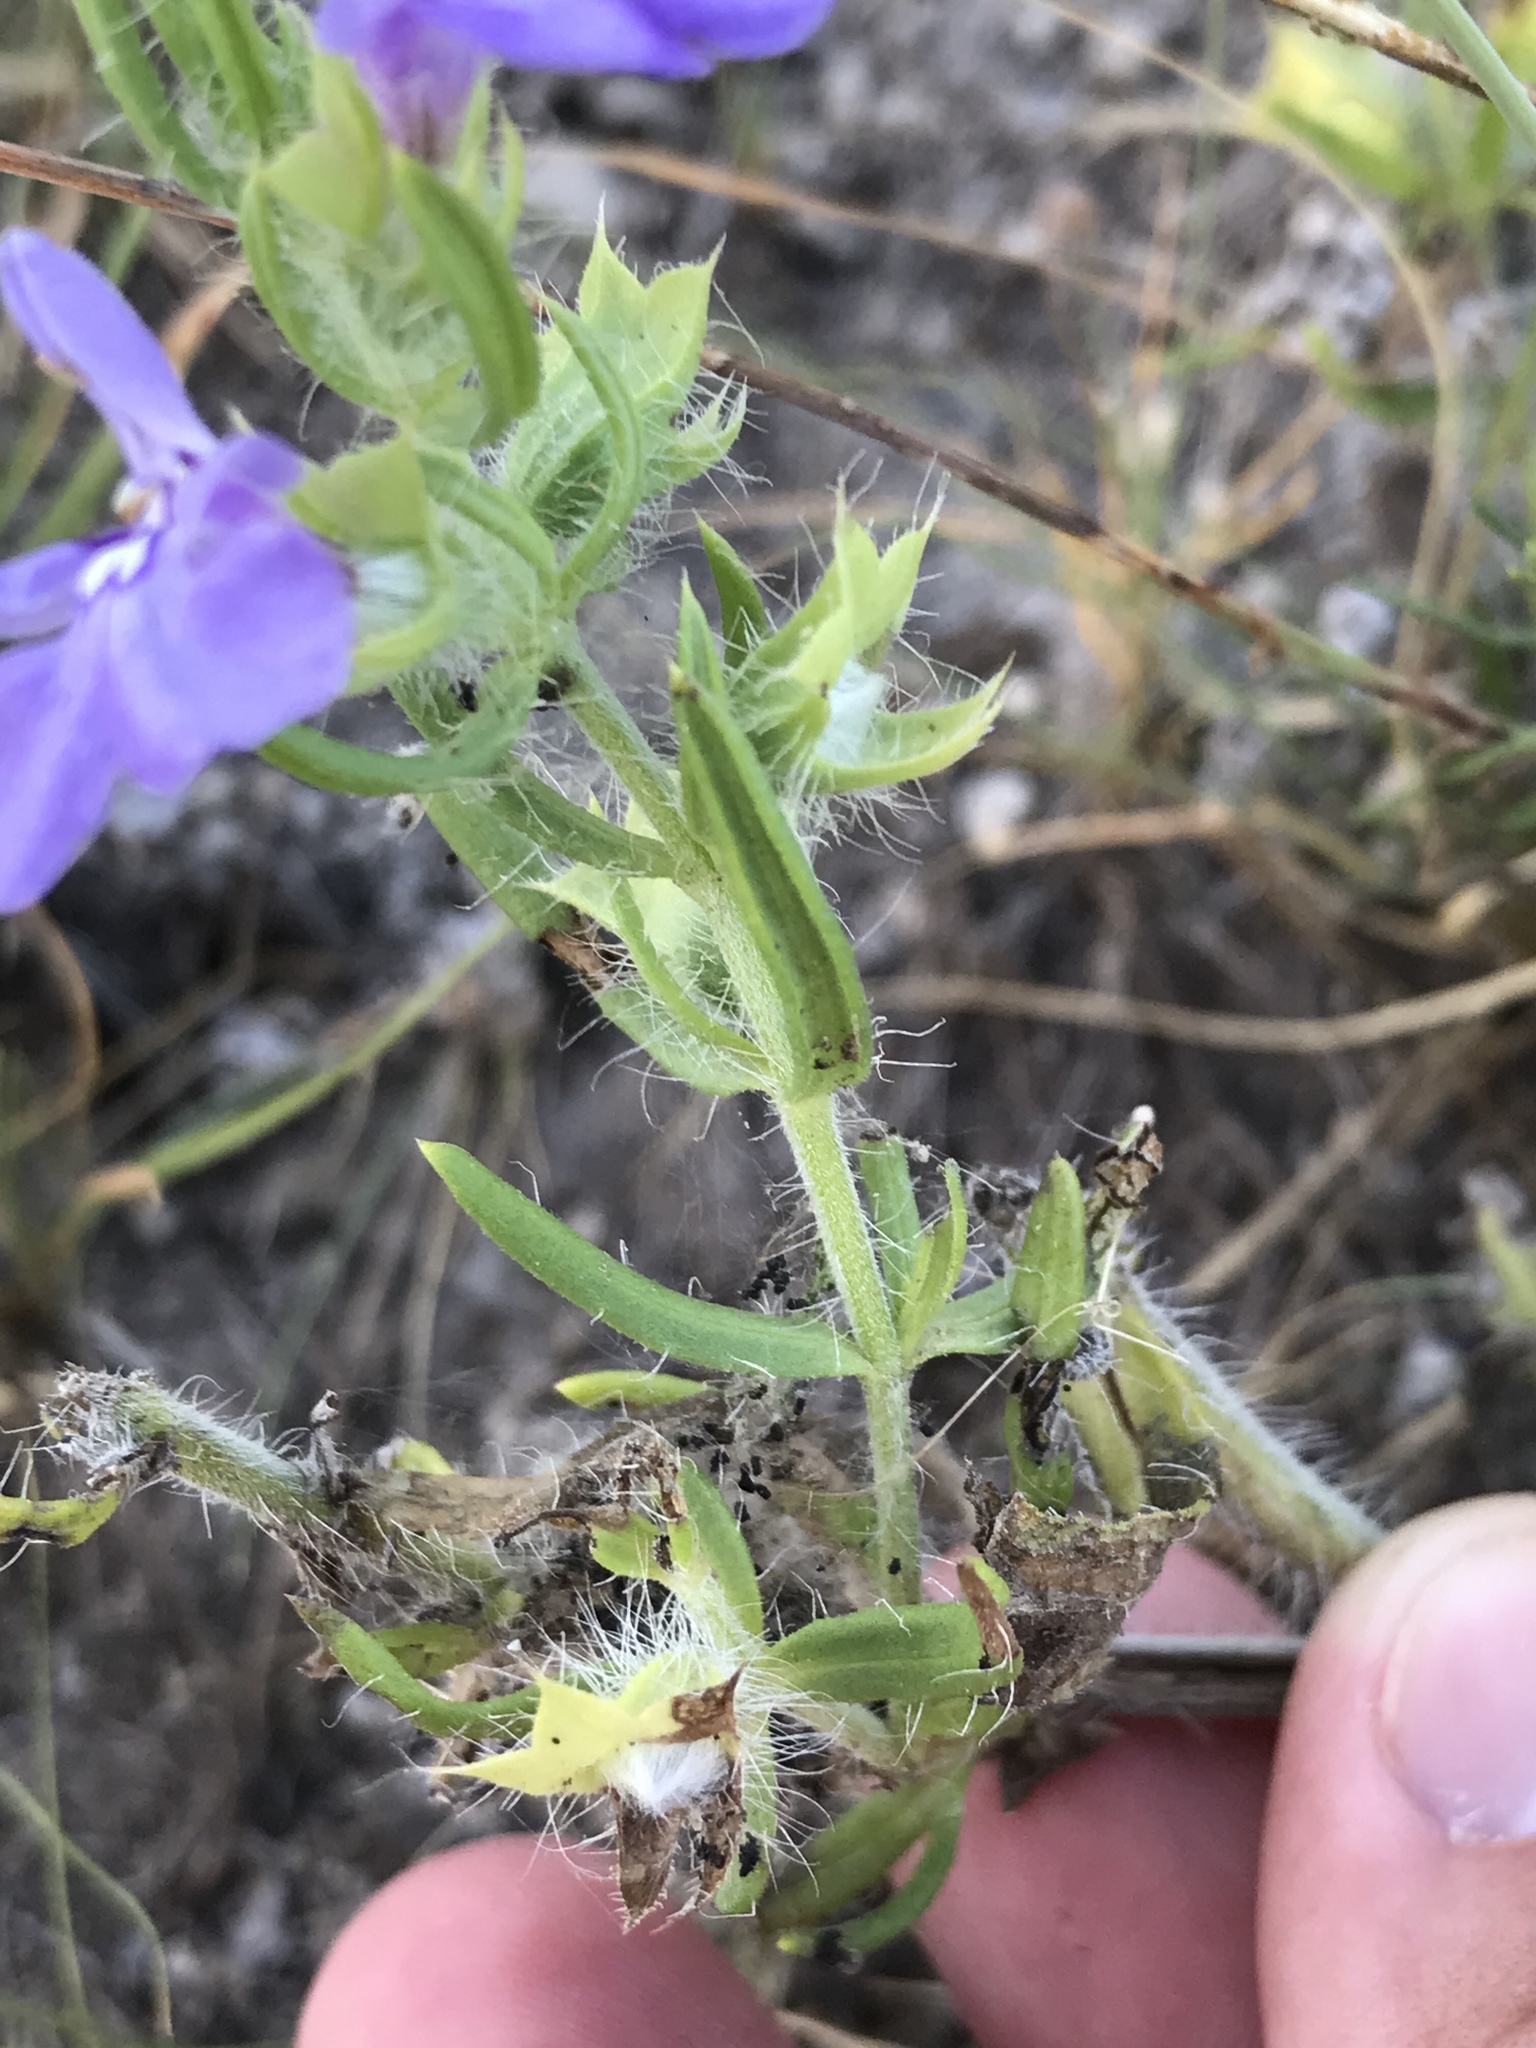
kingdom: Plantae
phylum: Tracheophyta
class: Magnoliopsida
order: Lamiales
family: Lamiaceae
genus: Salvia
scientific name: Salvia texana
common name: Texas sage
